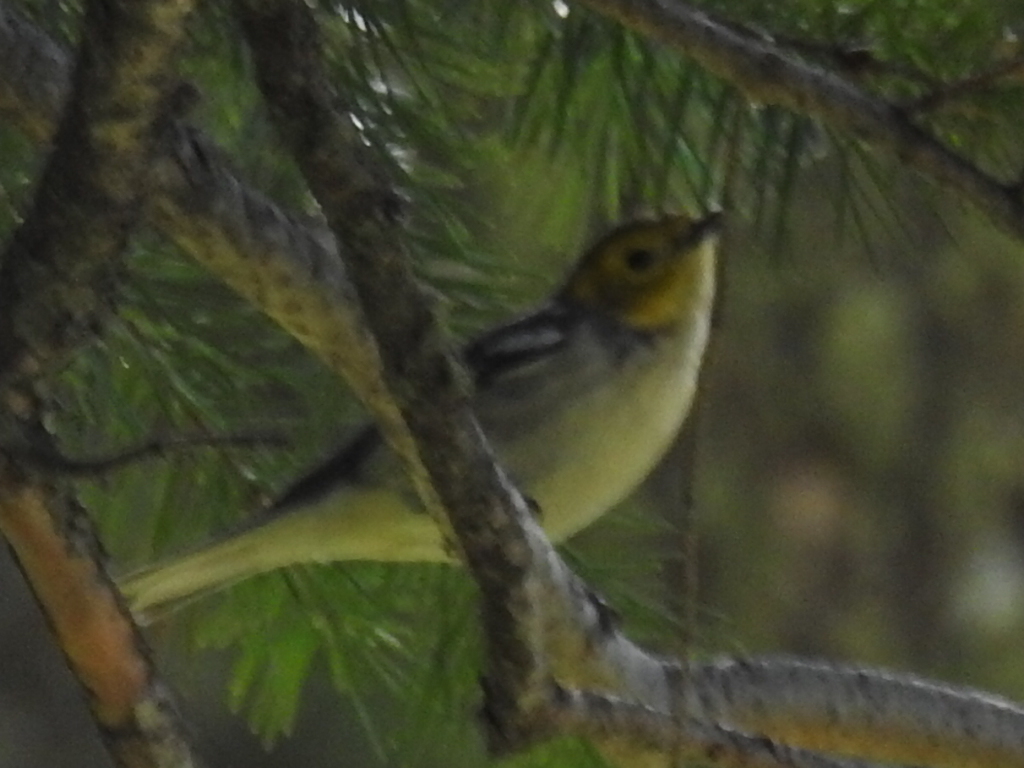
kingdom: Animalia
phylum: Chordata
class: Aves
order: Passeriformes
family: Parulidae
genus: Setophaga
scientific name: Setophaga occidentalis
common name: Hermit warbler
